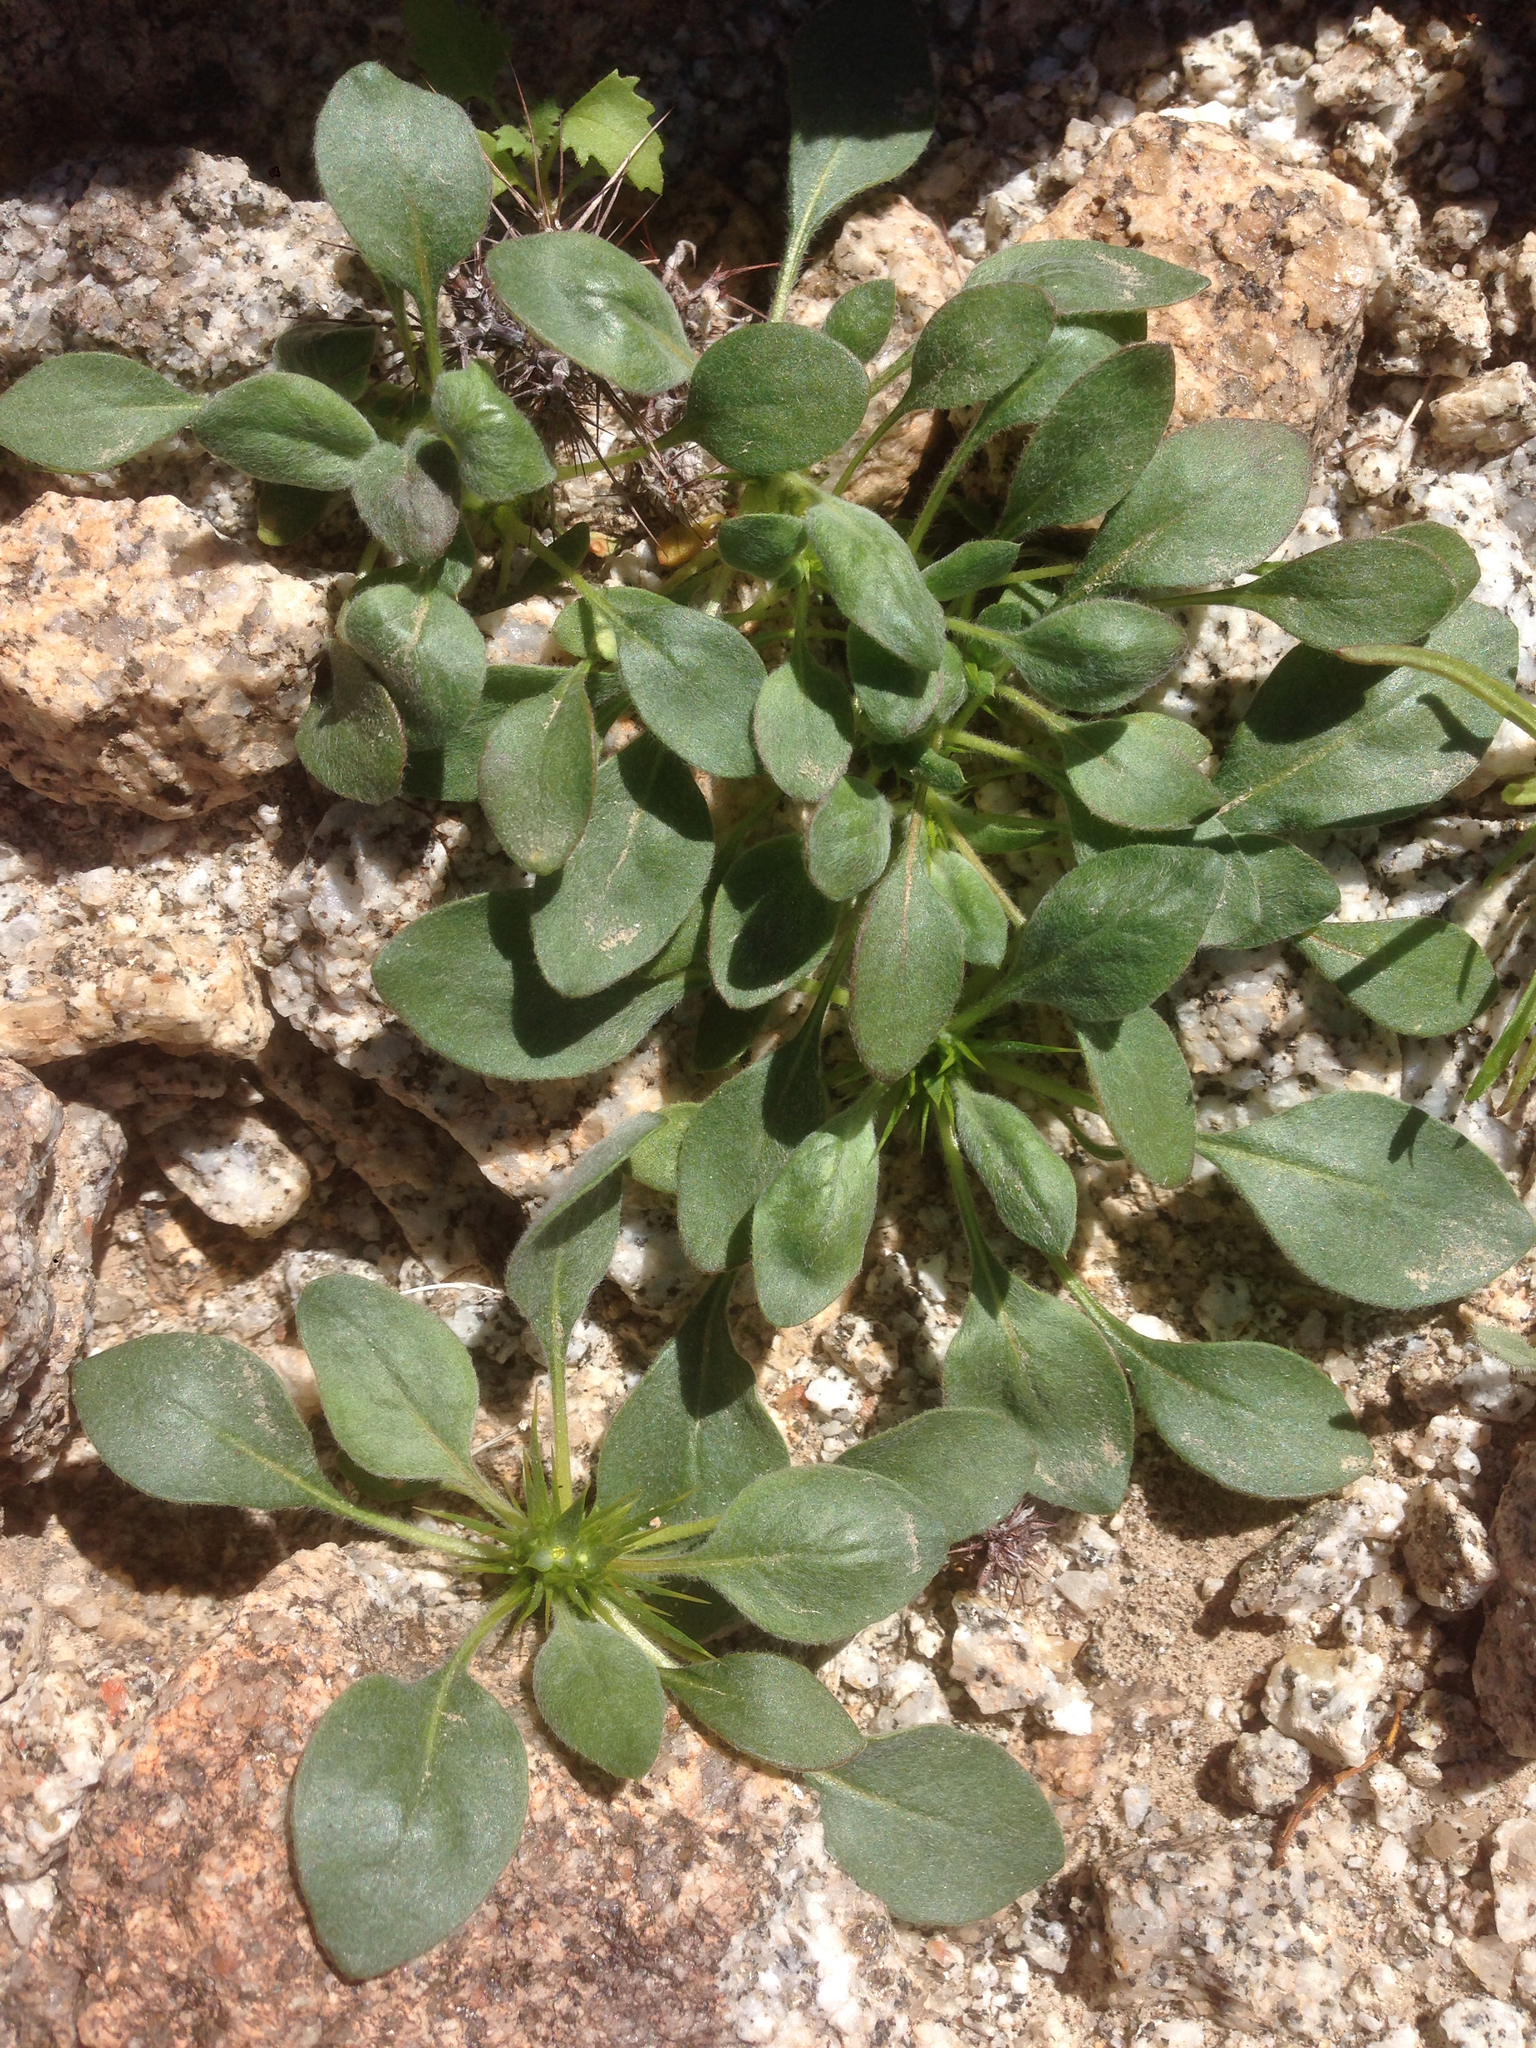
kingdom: Plantae
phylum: Tracheophyta
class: Magnoliopsida
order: Caryophyllales
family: Polygonaceae
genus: Chorizanthe
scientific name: Chorizanthe rigida
